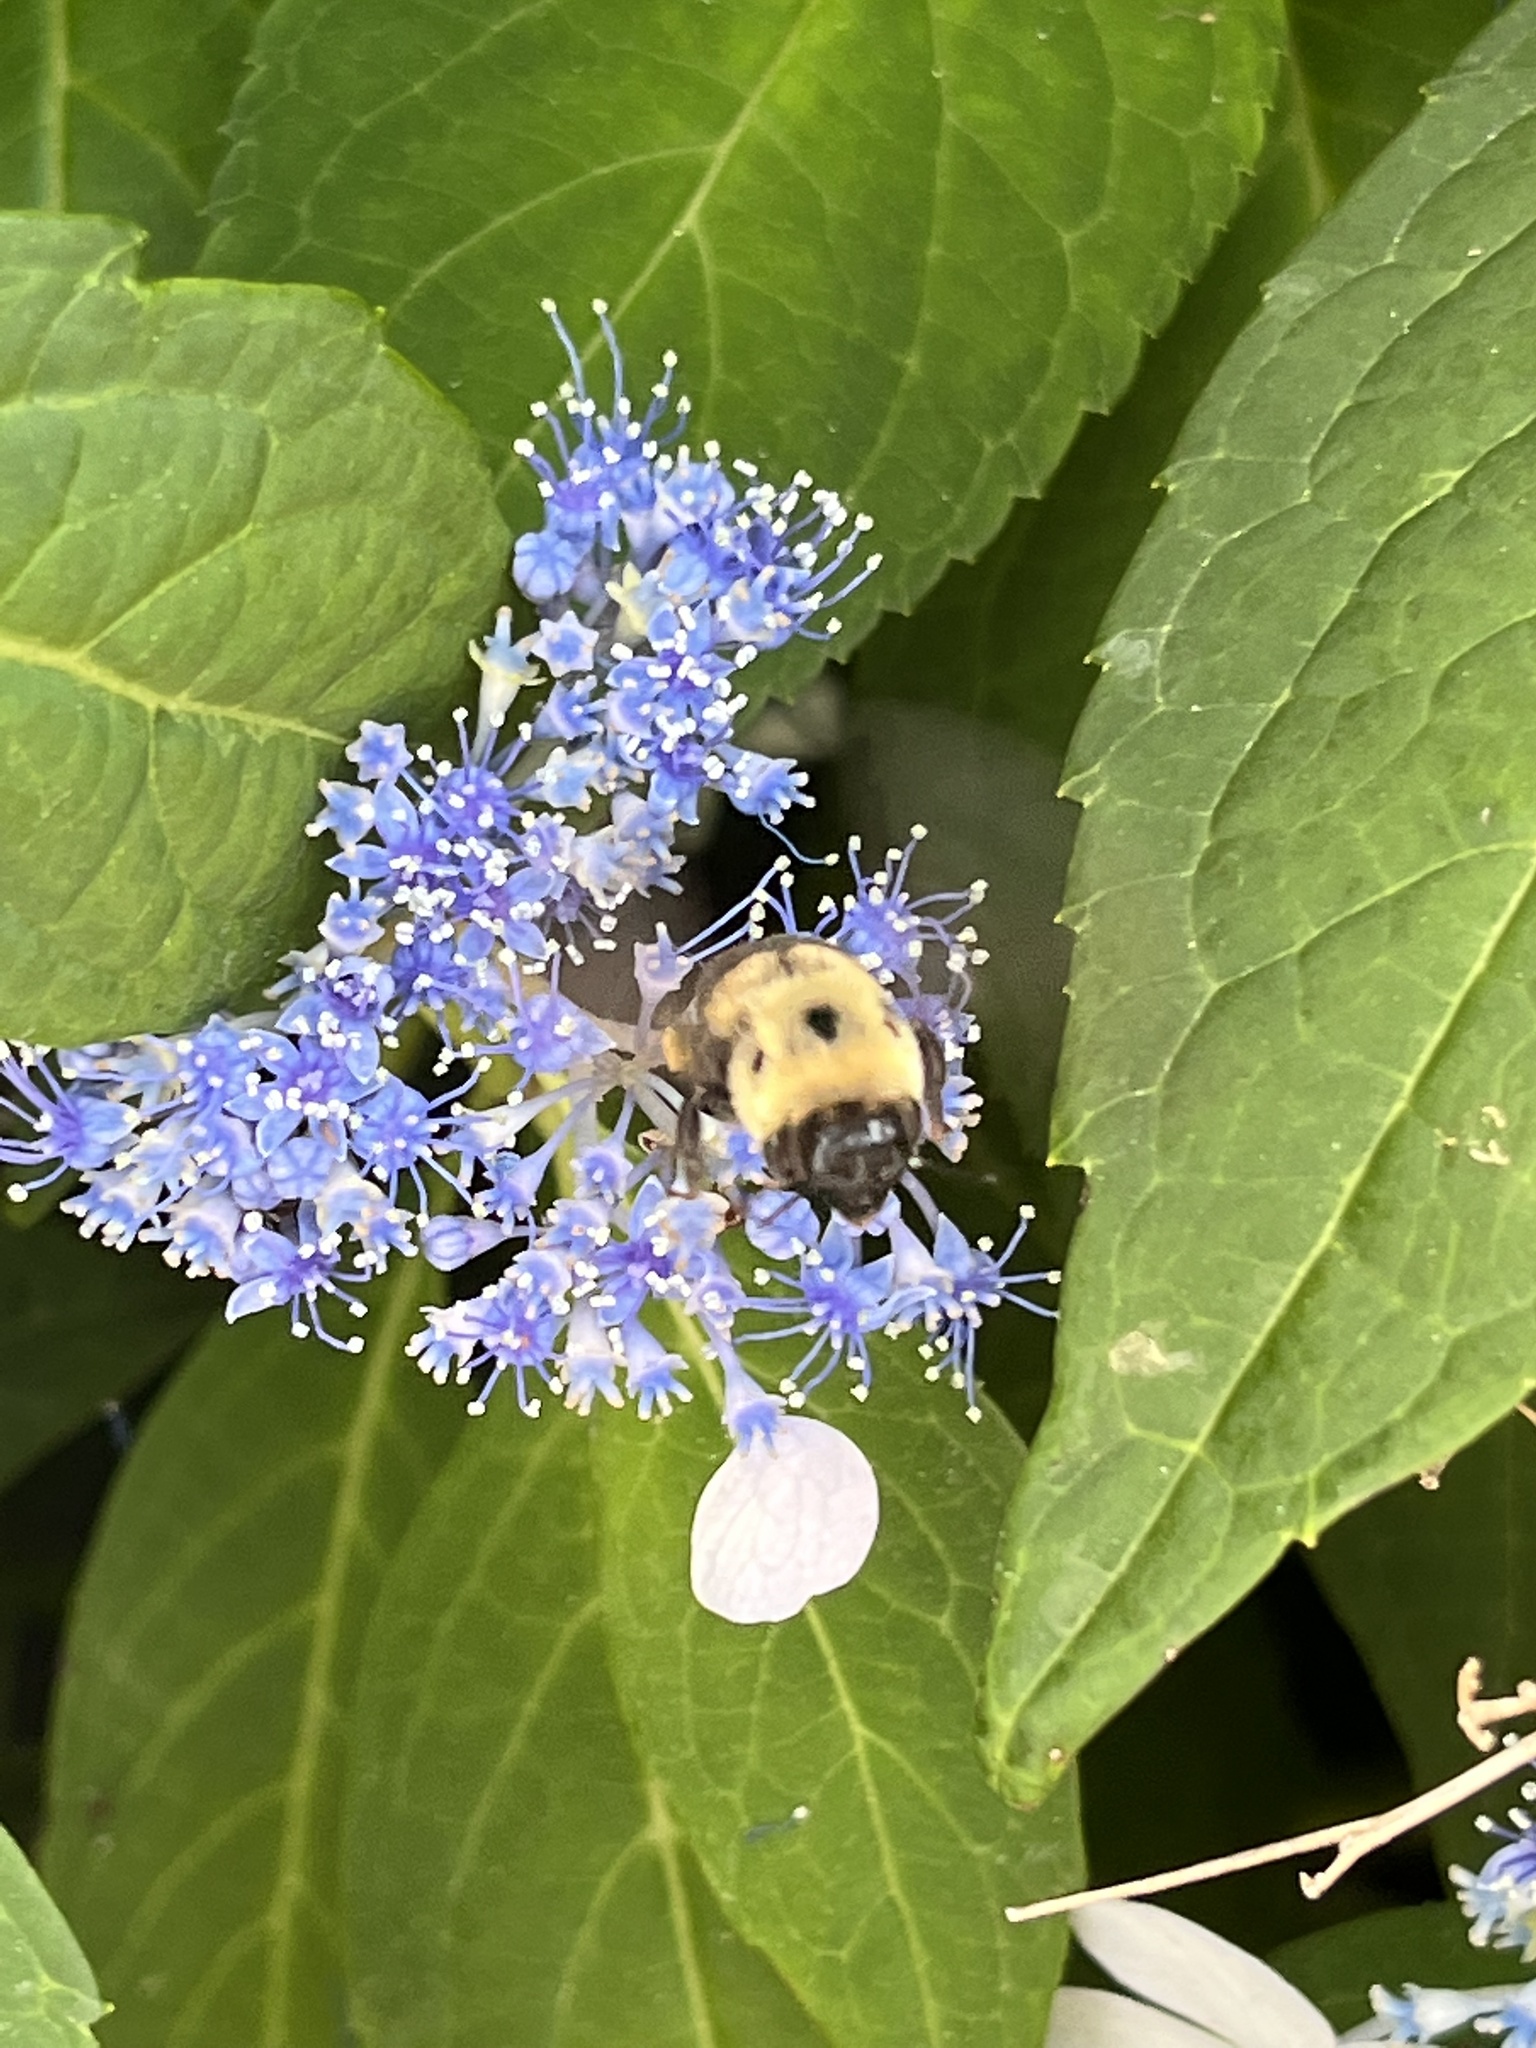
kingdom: Animalia
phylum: Arthropoda
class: Insecta
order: Hymenoptera
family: Apidae
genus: Bombus
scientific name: Bombus griseocollis
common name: Brown-belted bumble bee
